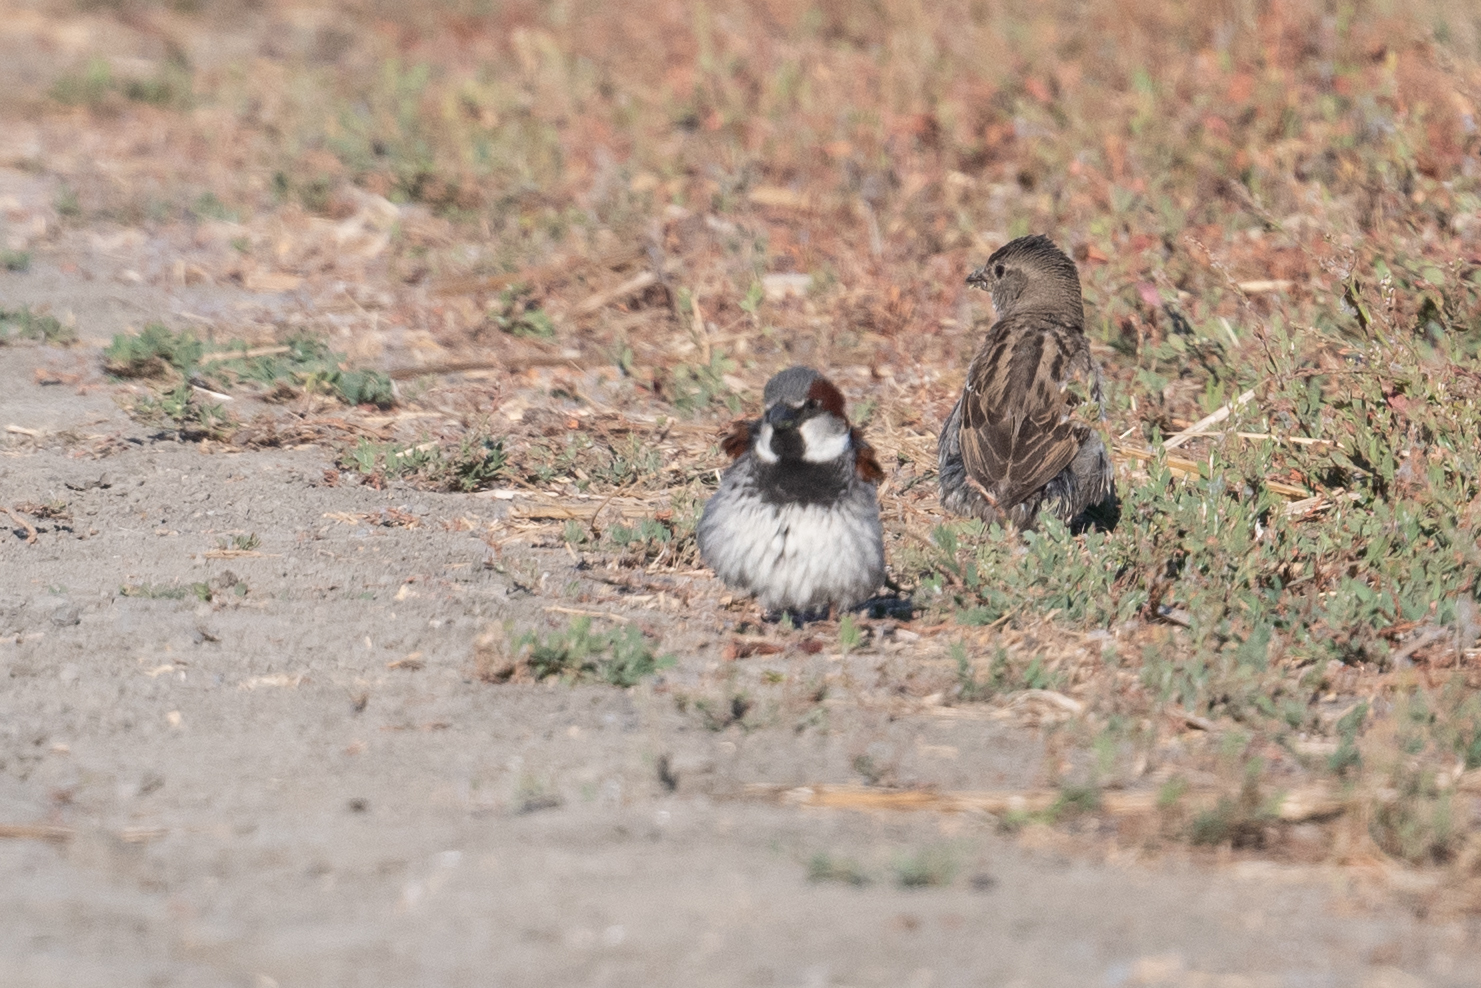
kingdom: Animalia
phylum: Chordata
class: Aves
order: Passeriformes
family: Passeridae
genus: Passer
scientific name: Passer domesticus
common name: House sparrow
